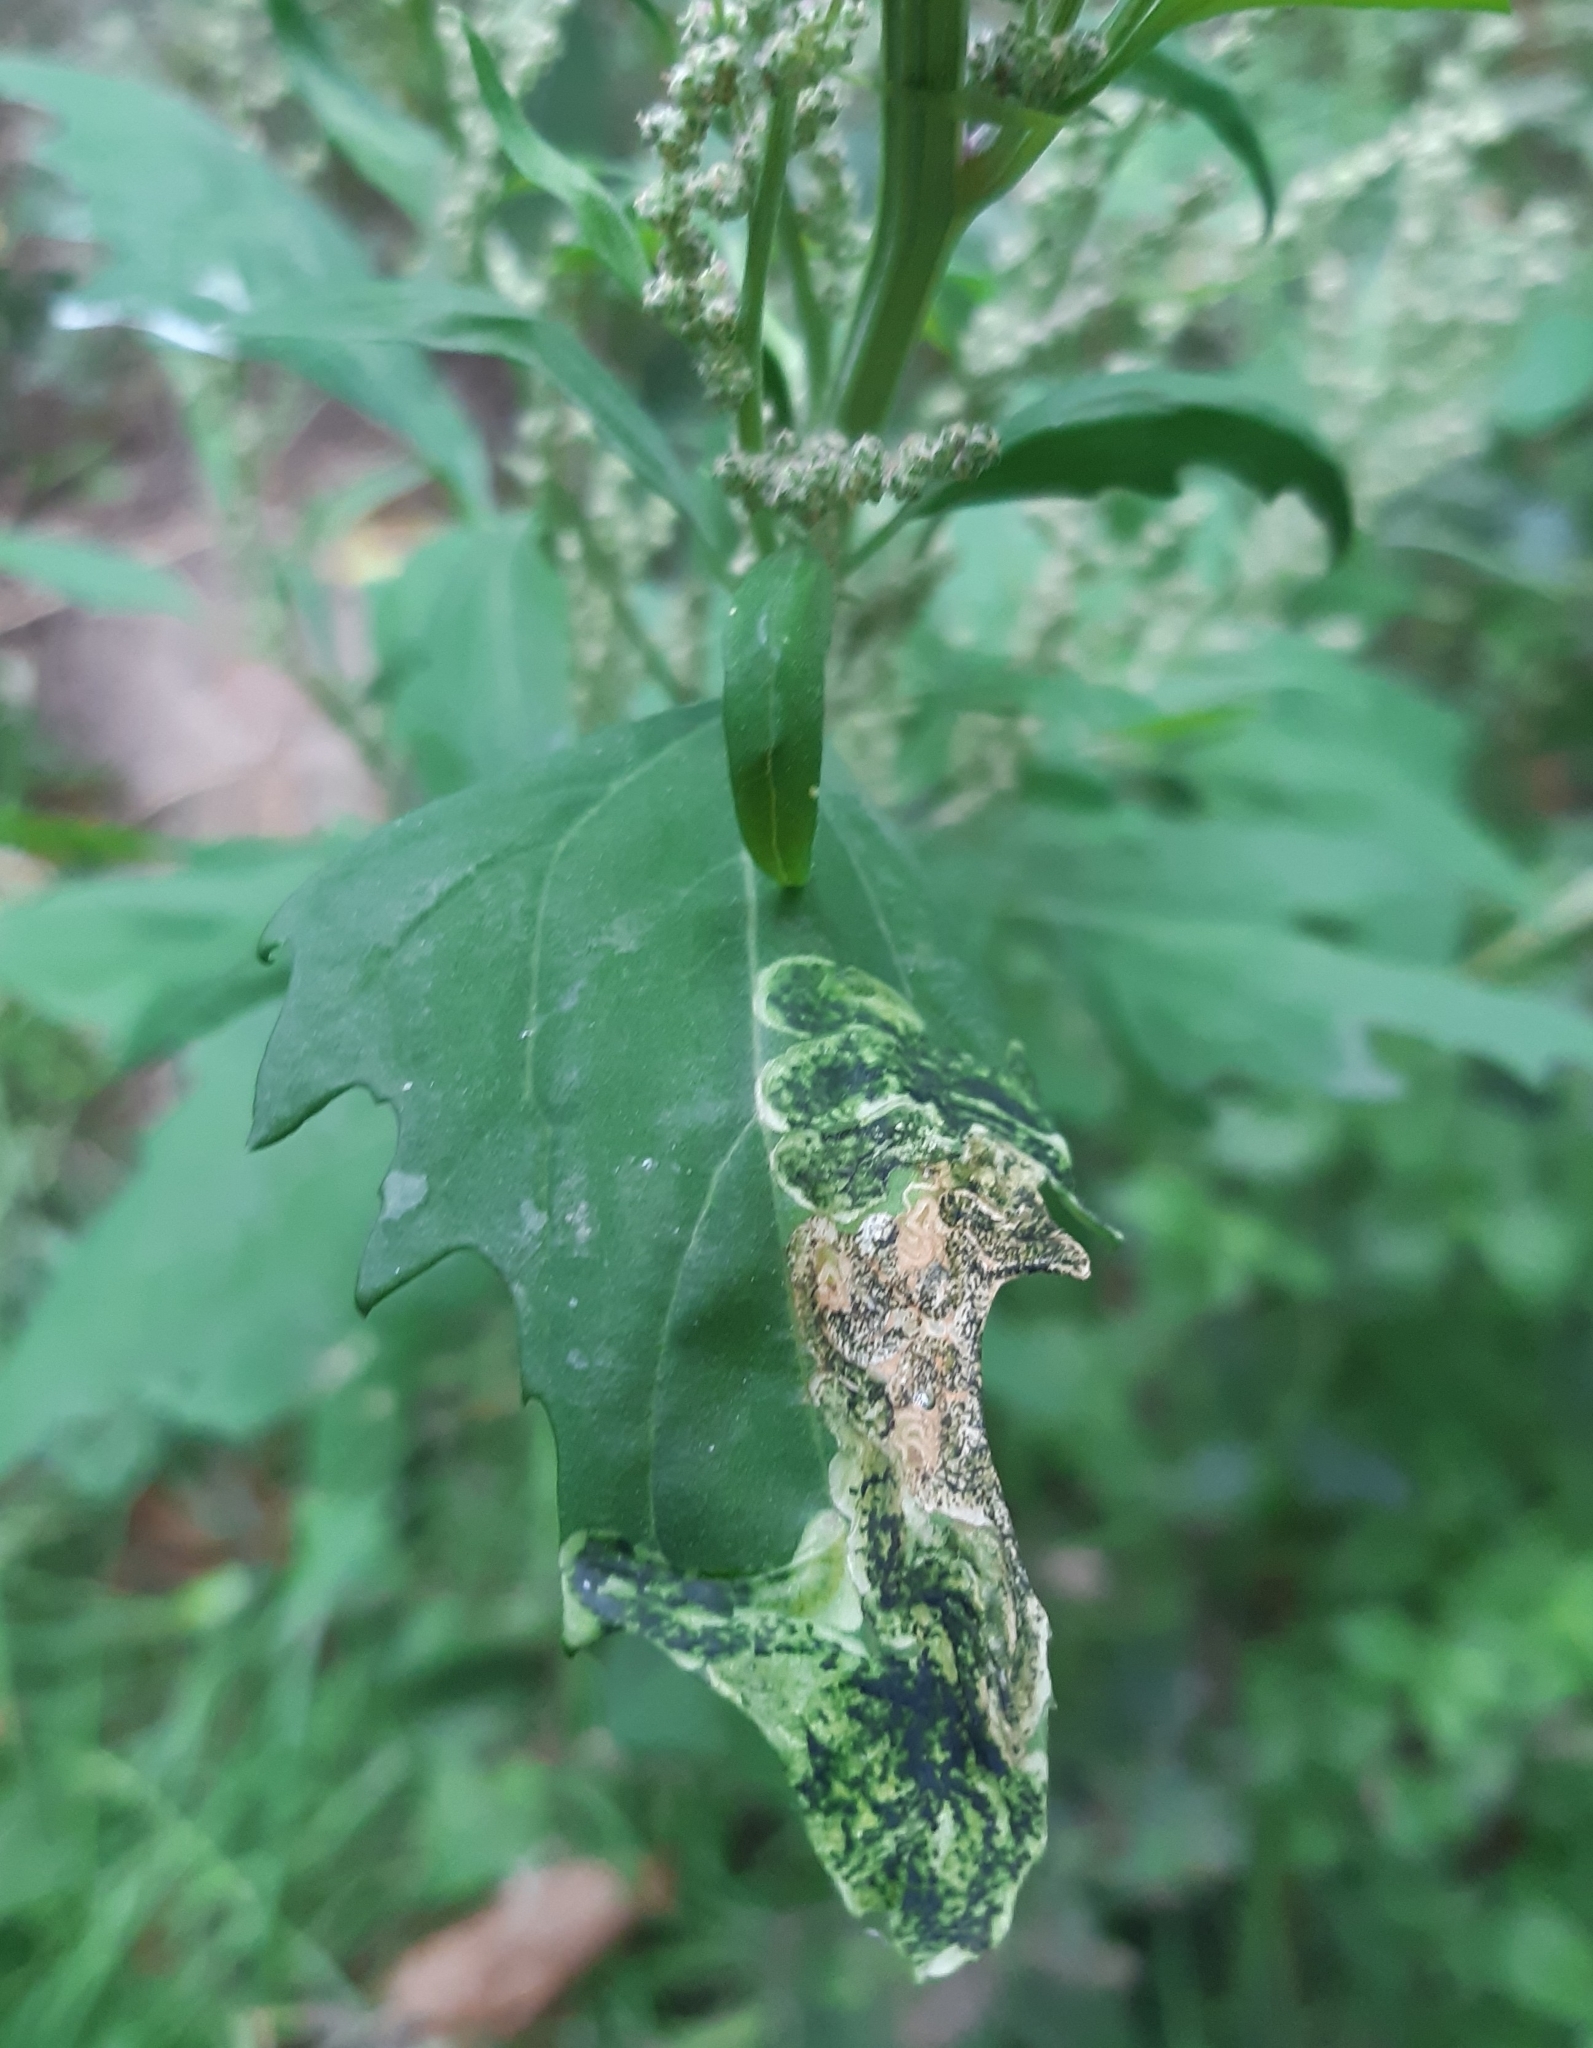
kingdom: Animalia
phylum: Arthropoda
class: Insecta
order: Lepidoptera
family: Gelechiidae
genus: Chrysoesthia
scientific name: Chrysoesthia drurella
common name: Flame neb
